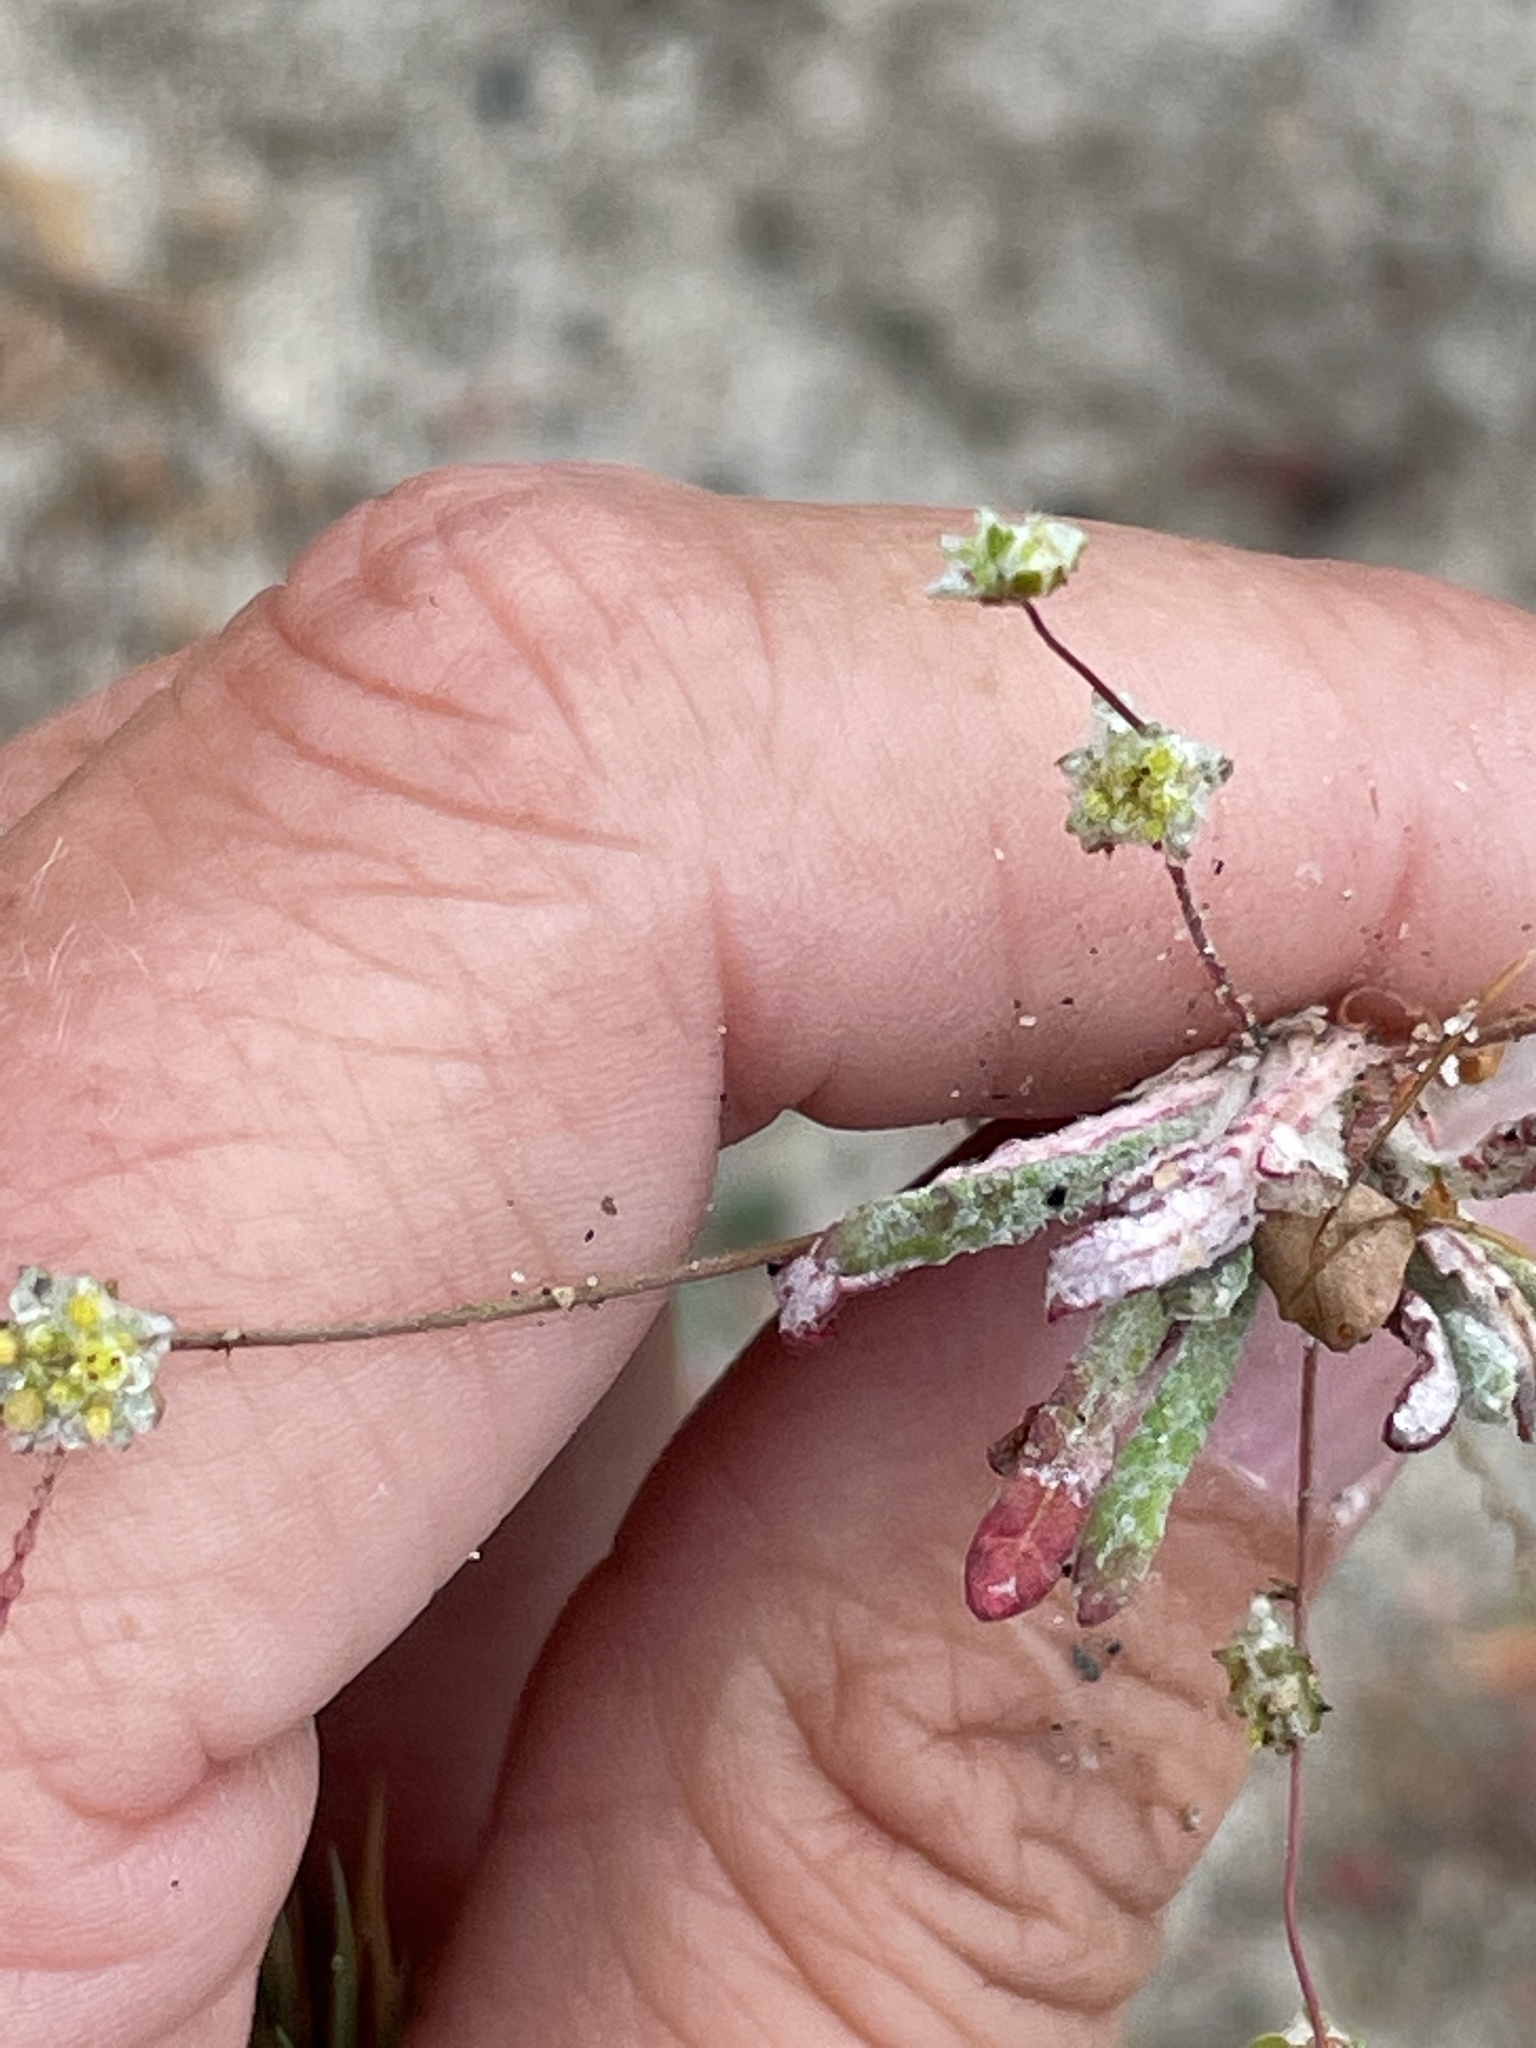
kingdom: Plantae
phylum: Tracheophyta
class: Magnoliopsida
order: Caryophyllales
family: Polygonaceae
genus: Nemacaulis
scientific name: Nemacaulis denudata
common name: Woolly-heads
